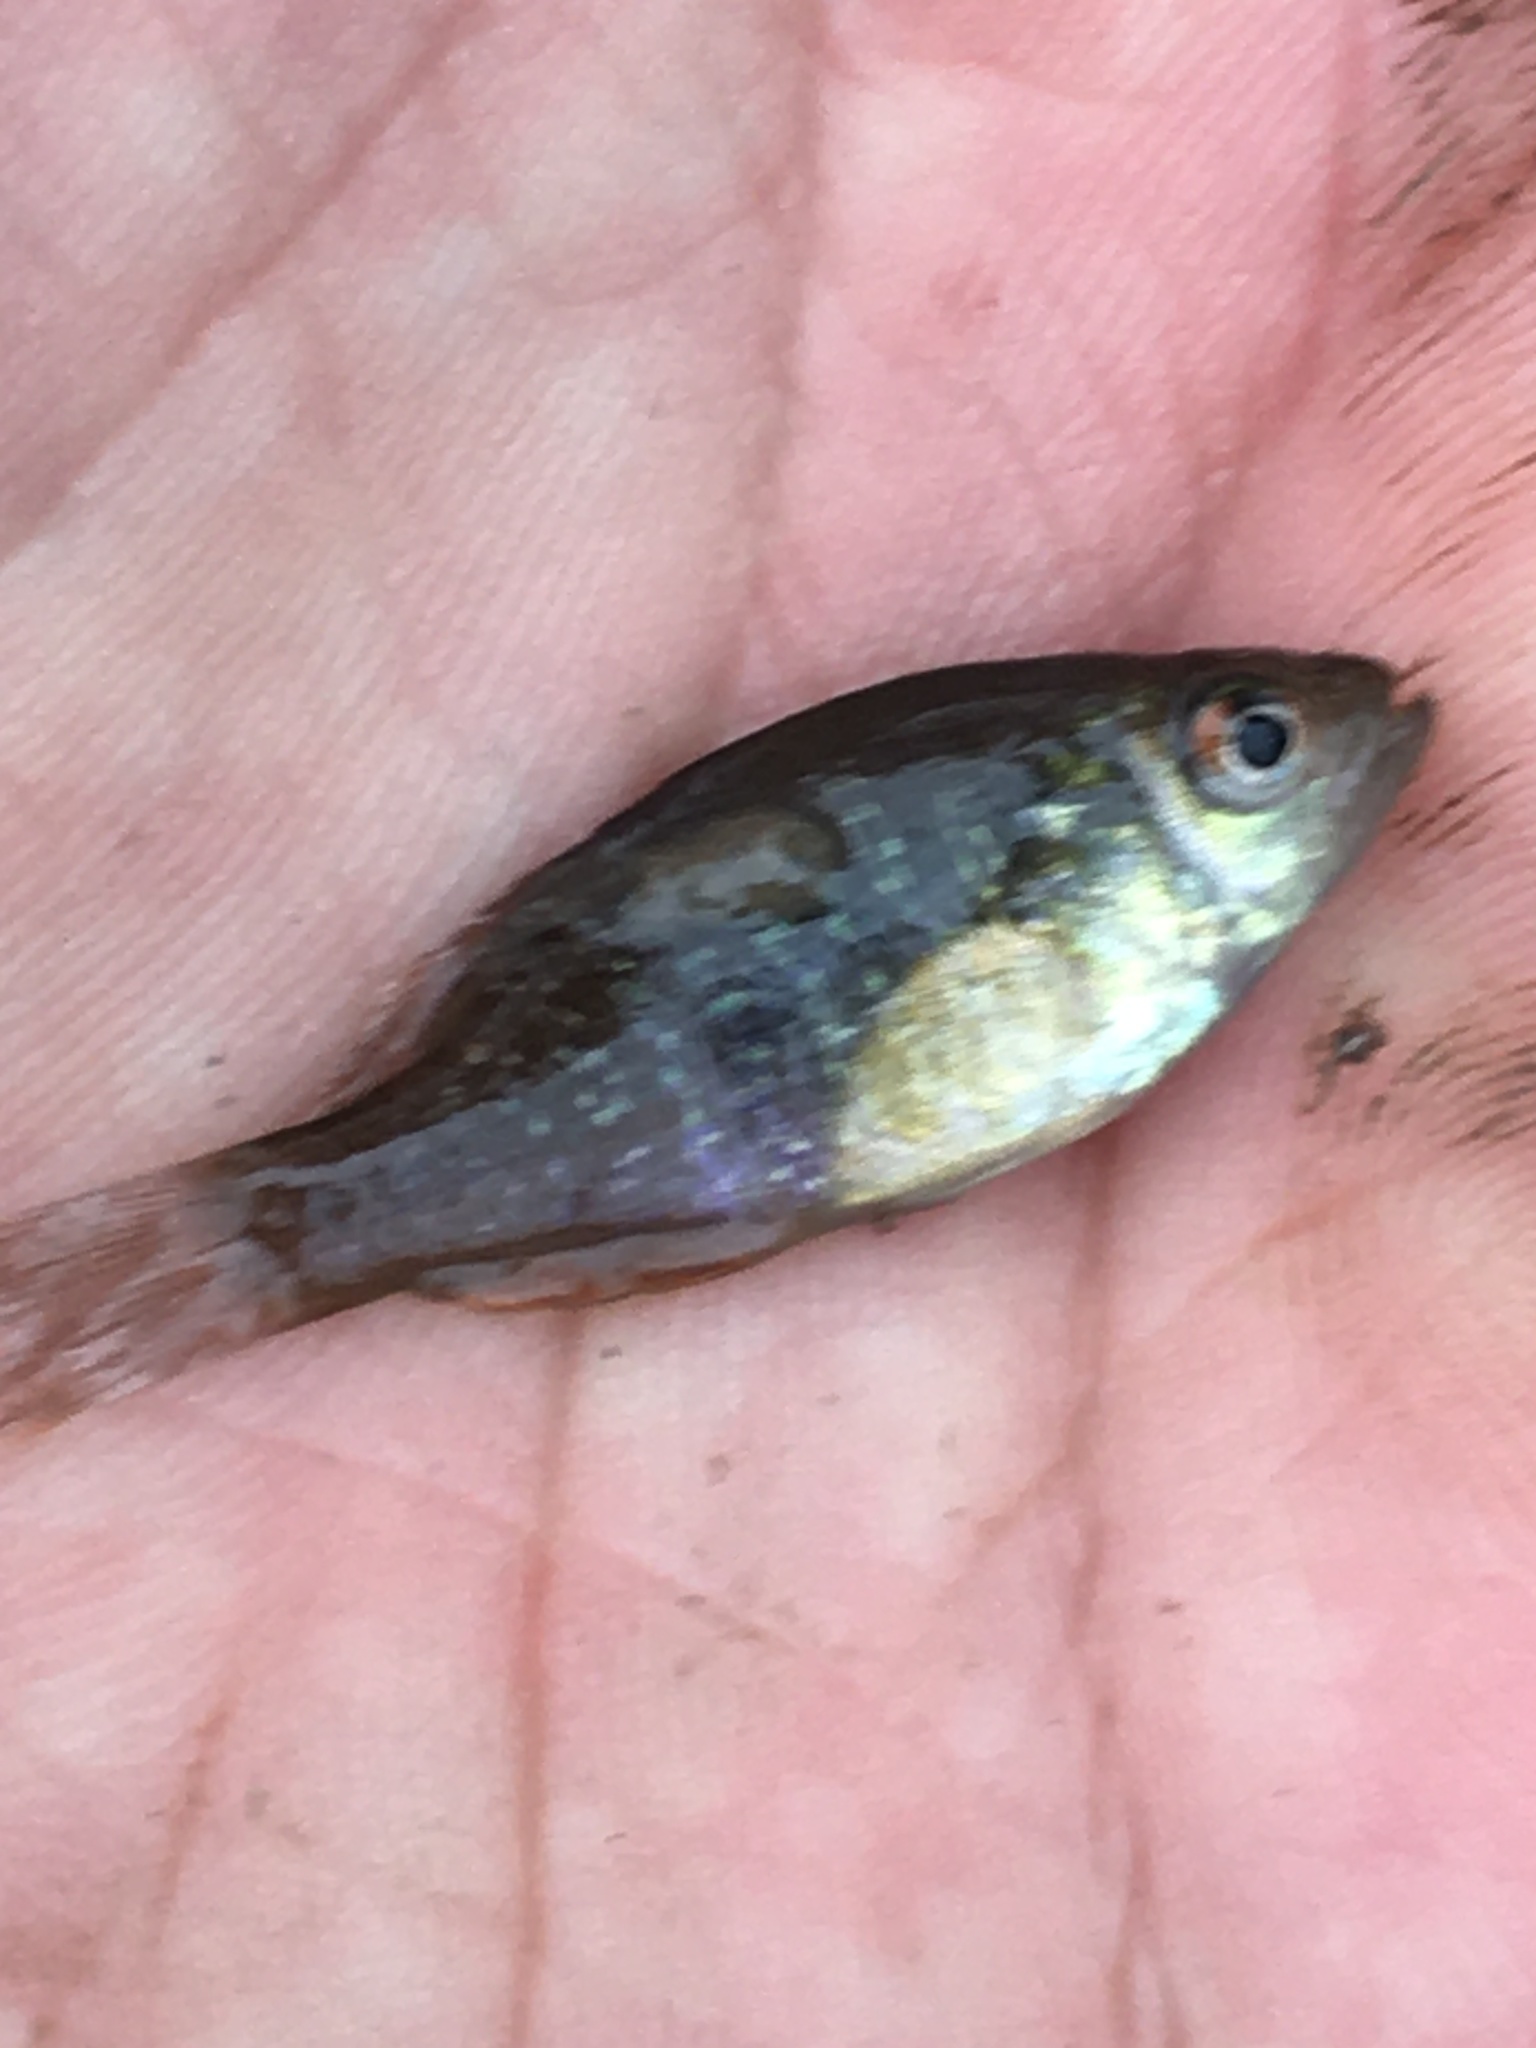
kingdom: Animalia
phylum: Chordata
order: Perciformes
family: Centrarchidae
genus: Lepomis
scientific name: Lepomis cyanellus
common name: Green sunfish
